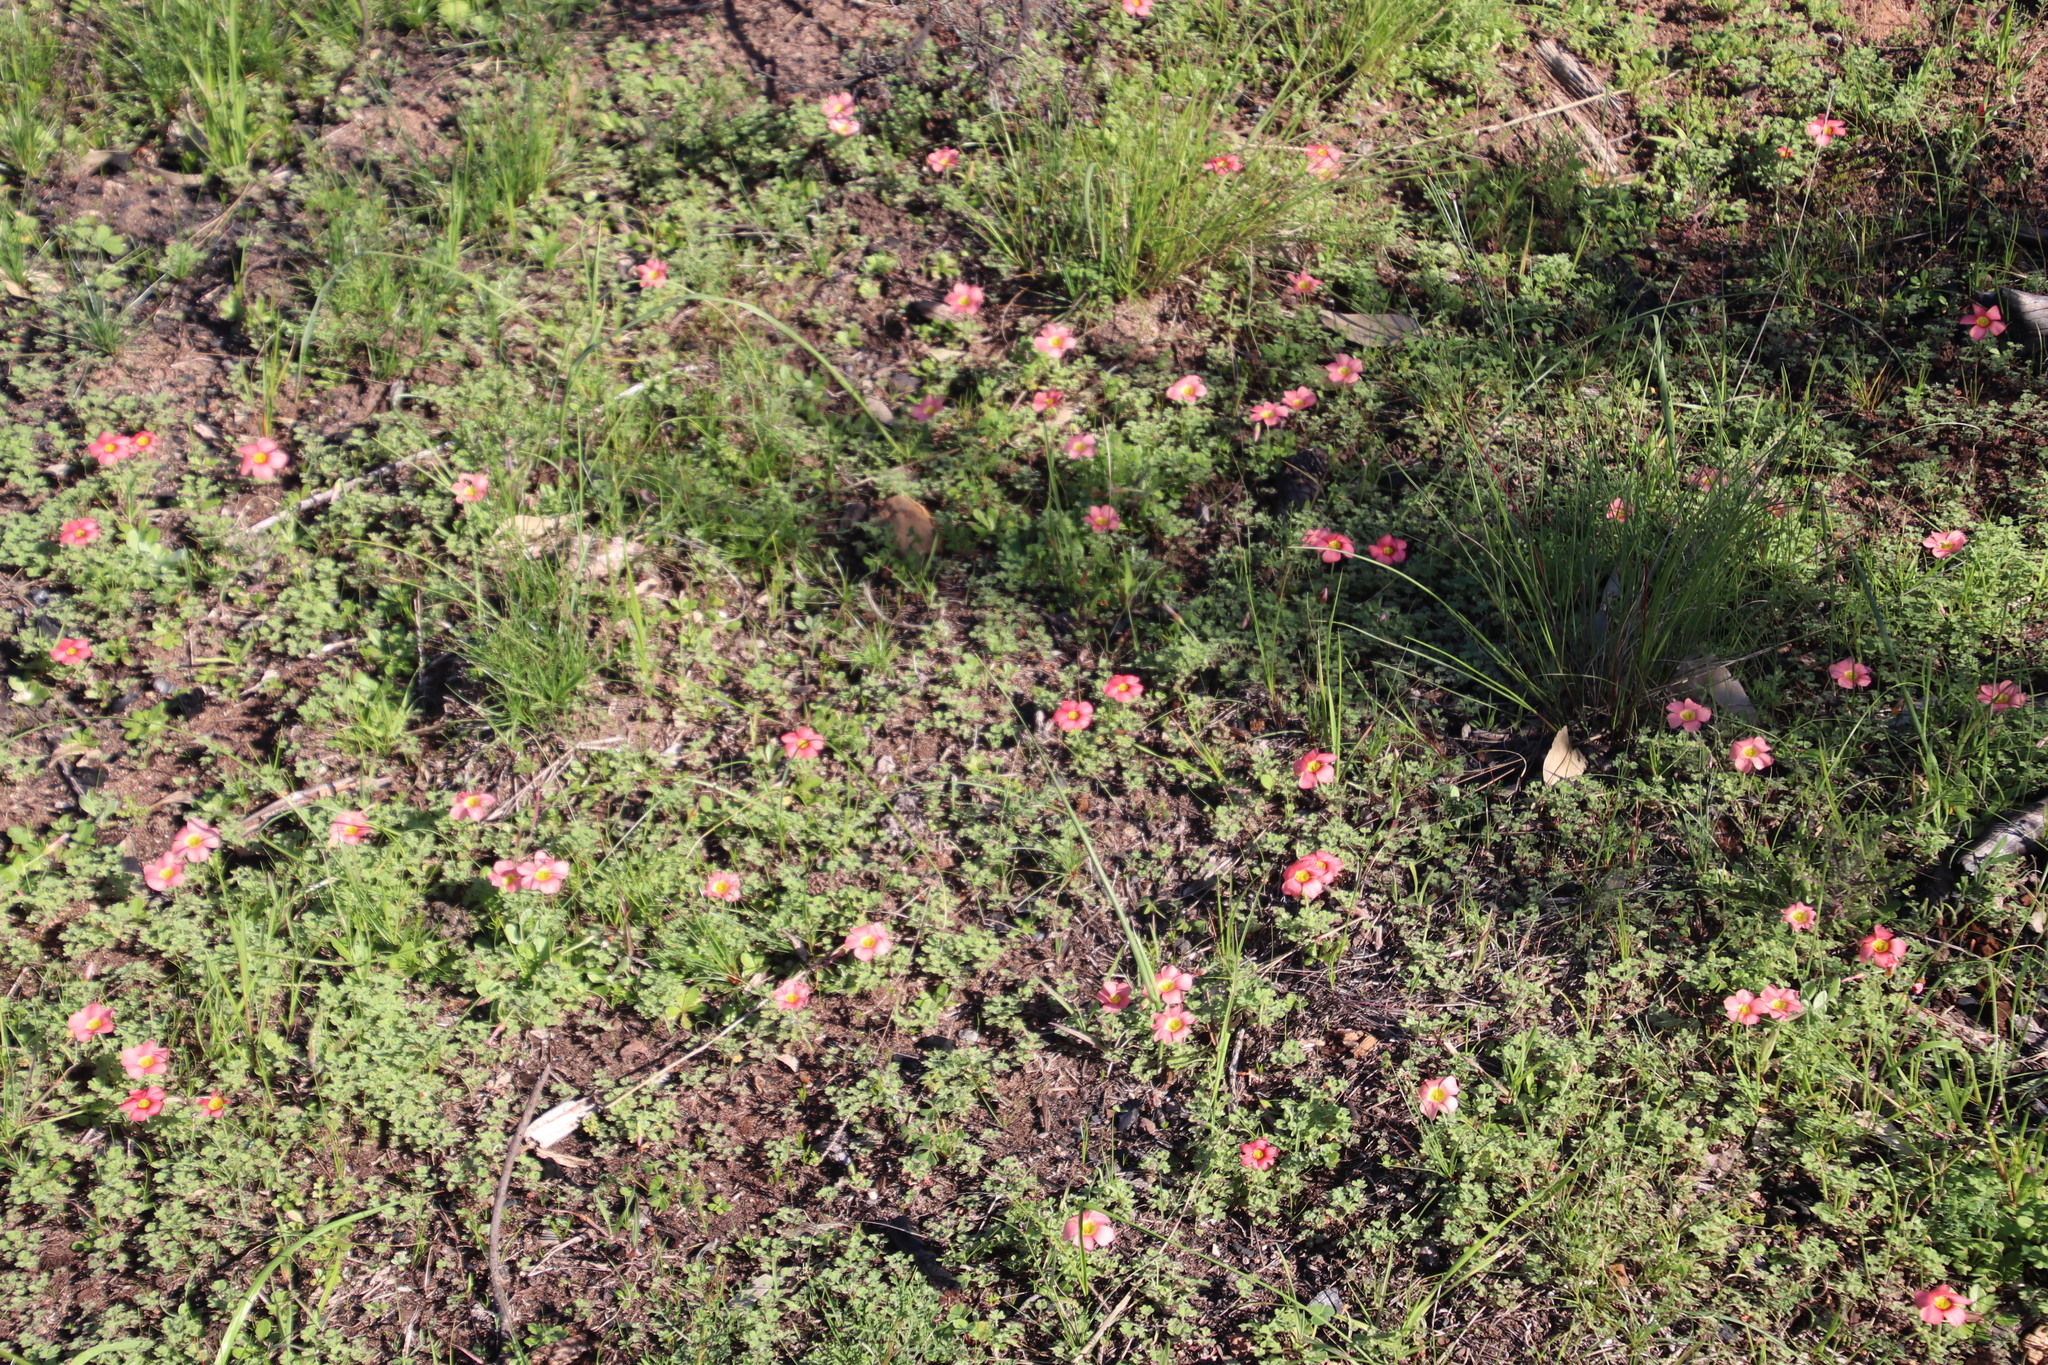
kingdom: Plantae
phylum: Tracheophyta
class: Magnoliopsida
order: Oxalidales
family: Oxalidaceae
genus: Oxalis
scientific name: Oxalis obtusa
